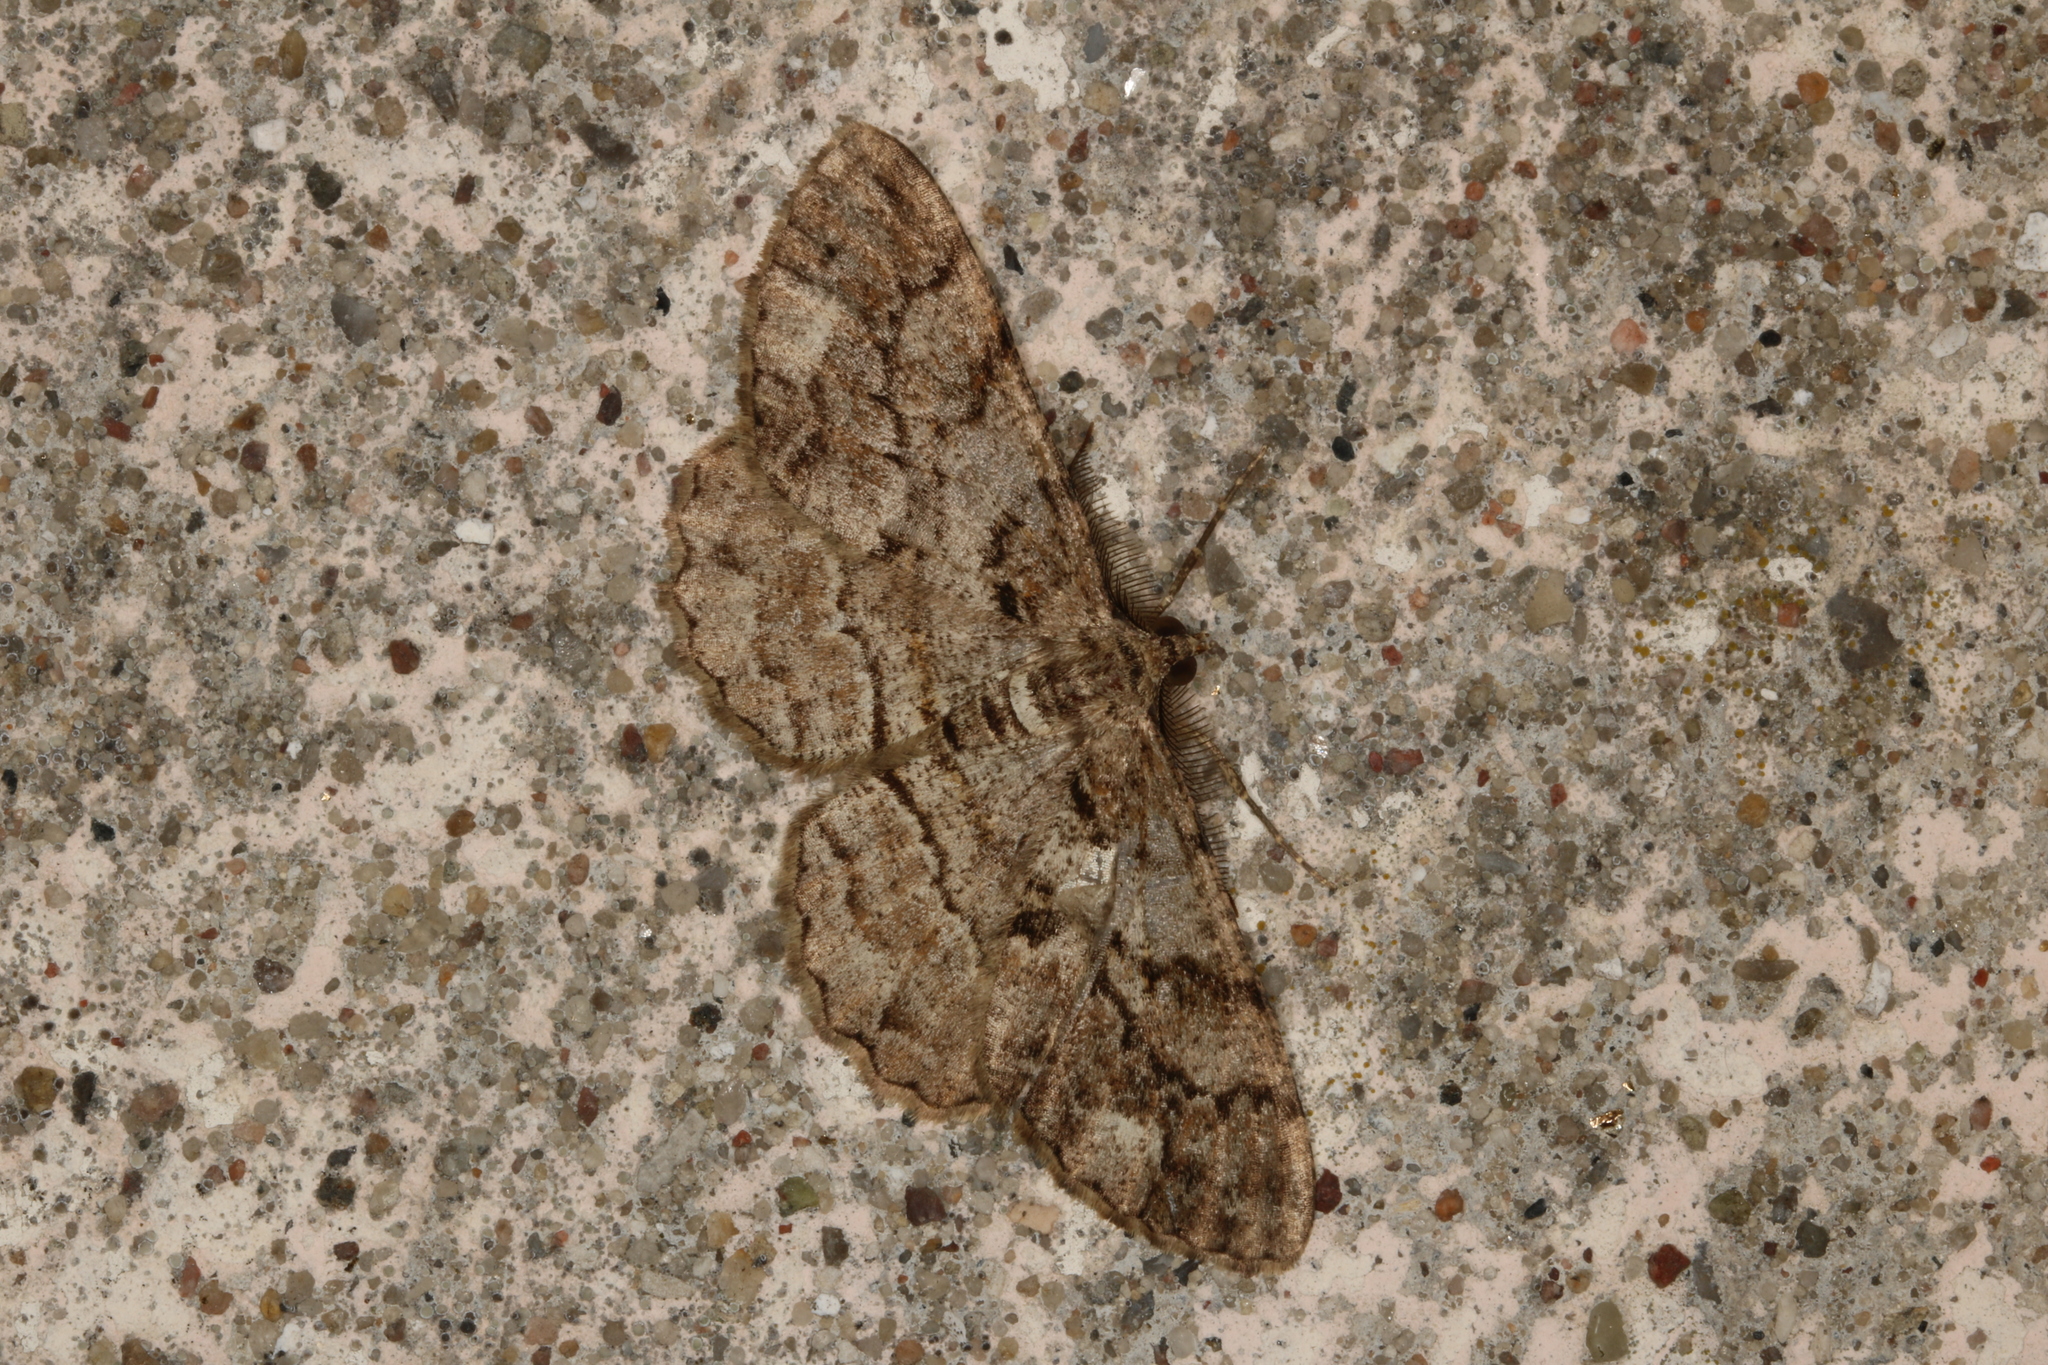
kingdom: Animalia
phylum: Arthropoda
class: Insecta
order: Lepidoptera
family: Geometridae
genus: Peribatodes
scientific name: Peribatodes secundaria
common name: Feathered beauty
